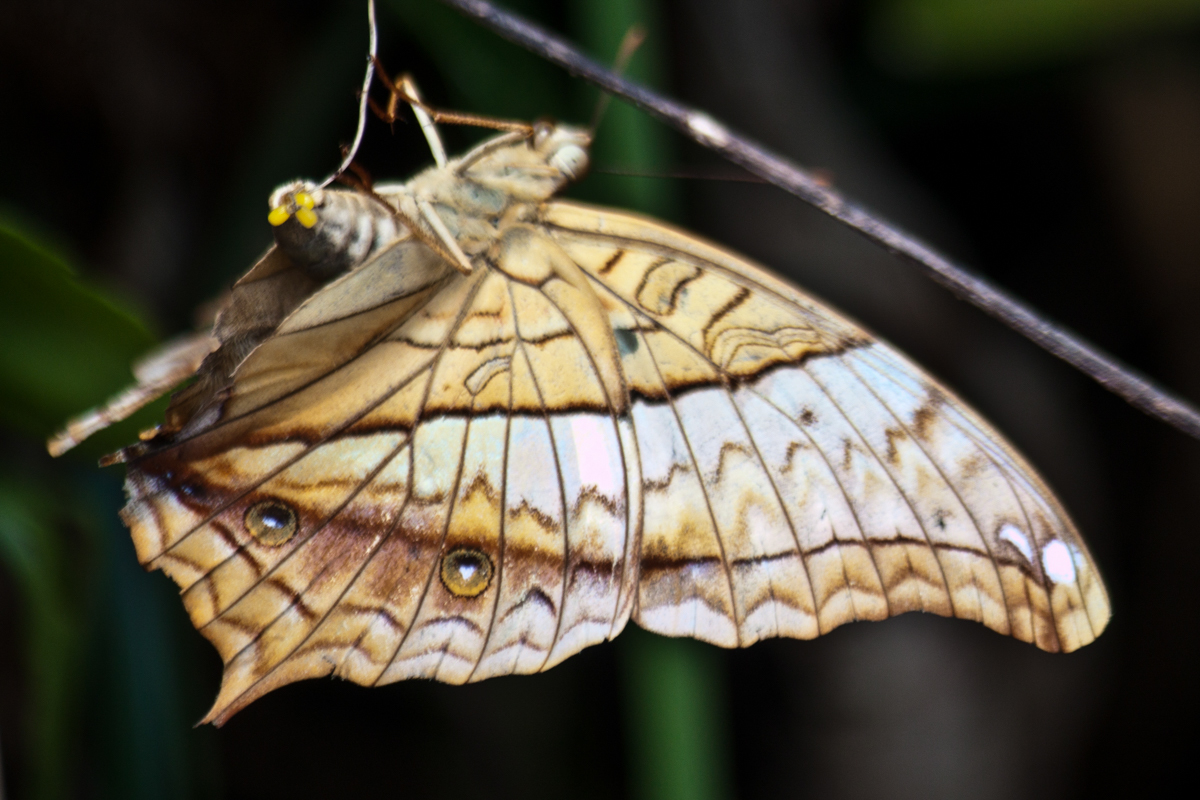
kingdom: Animalia
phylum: Arthropoda
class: Insecta
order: Lepidoptera
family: Nymphalidae
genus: Vindula
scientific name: Vindula erota
